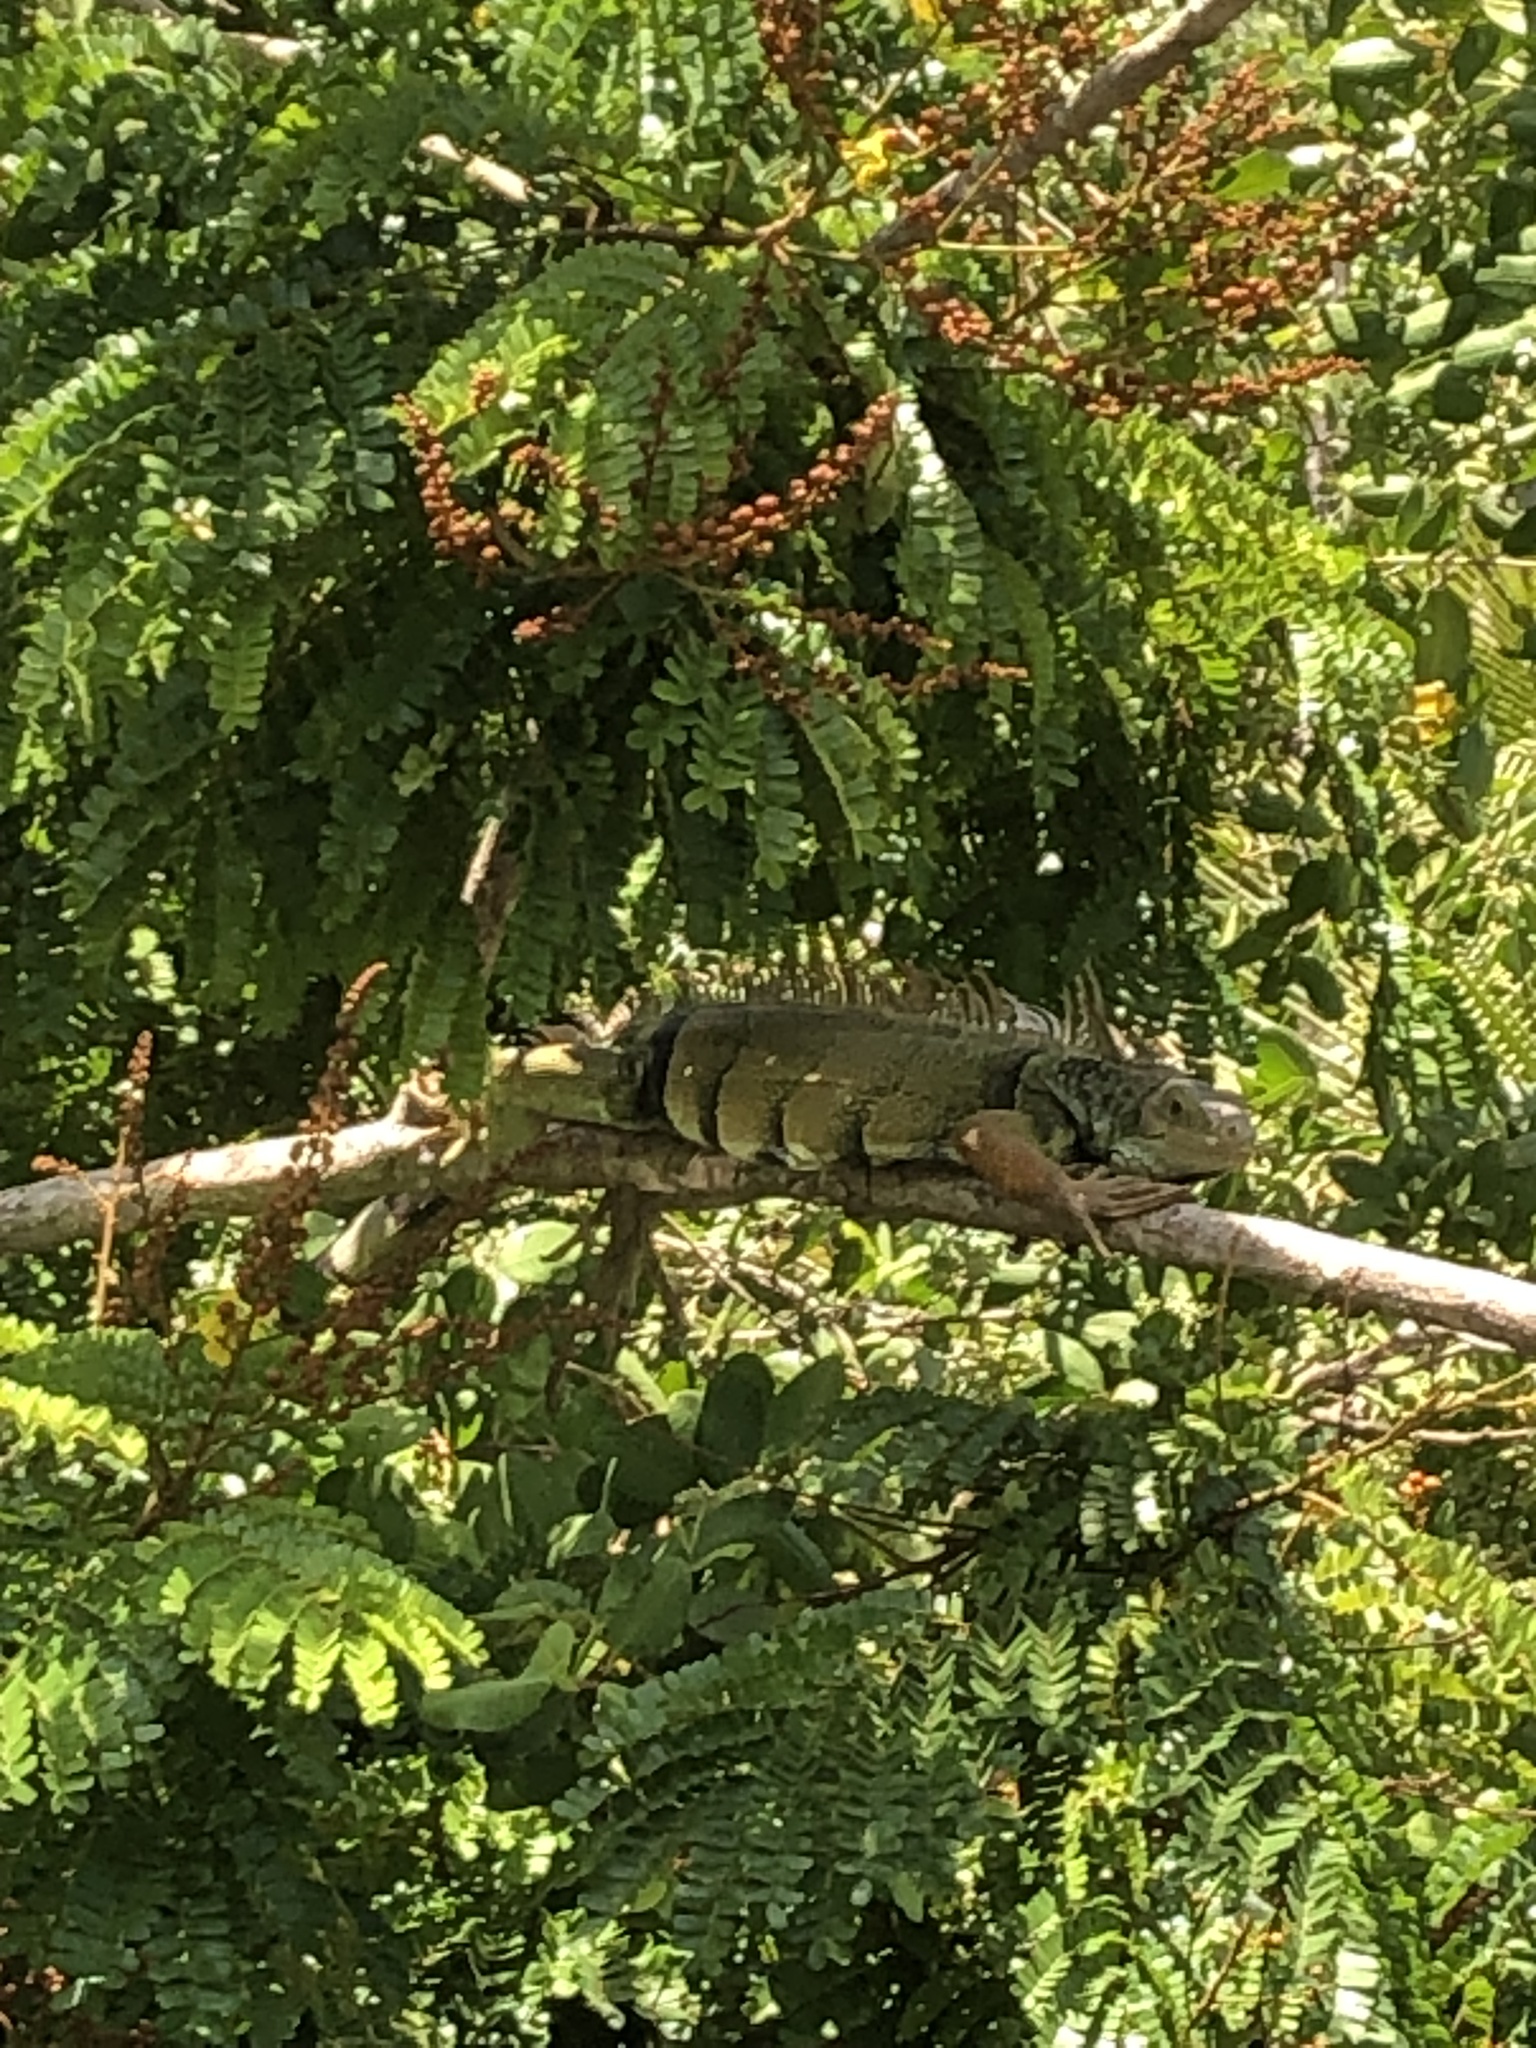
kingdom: Animalia
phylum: Chordata
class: Squamata
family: Iguanidae
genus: Iguana
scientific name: Iguana iguana
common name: Green iguana
